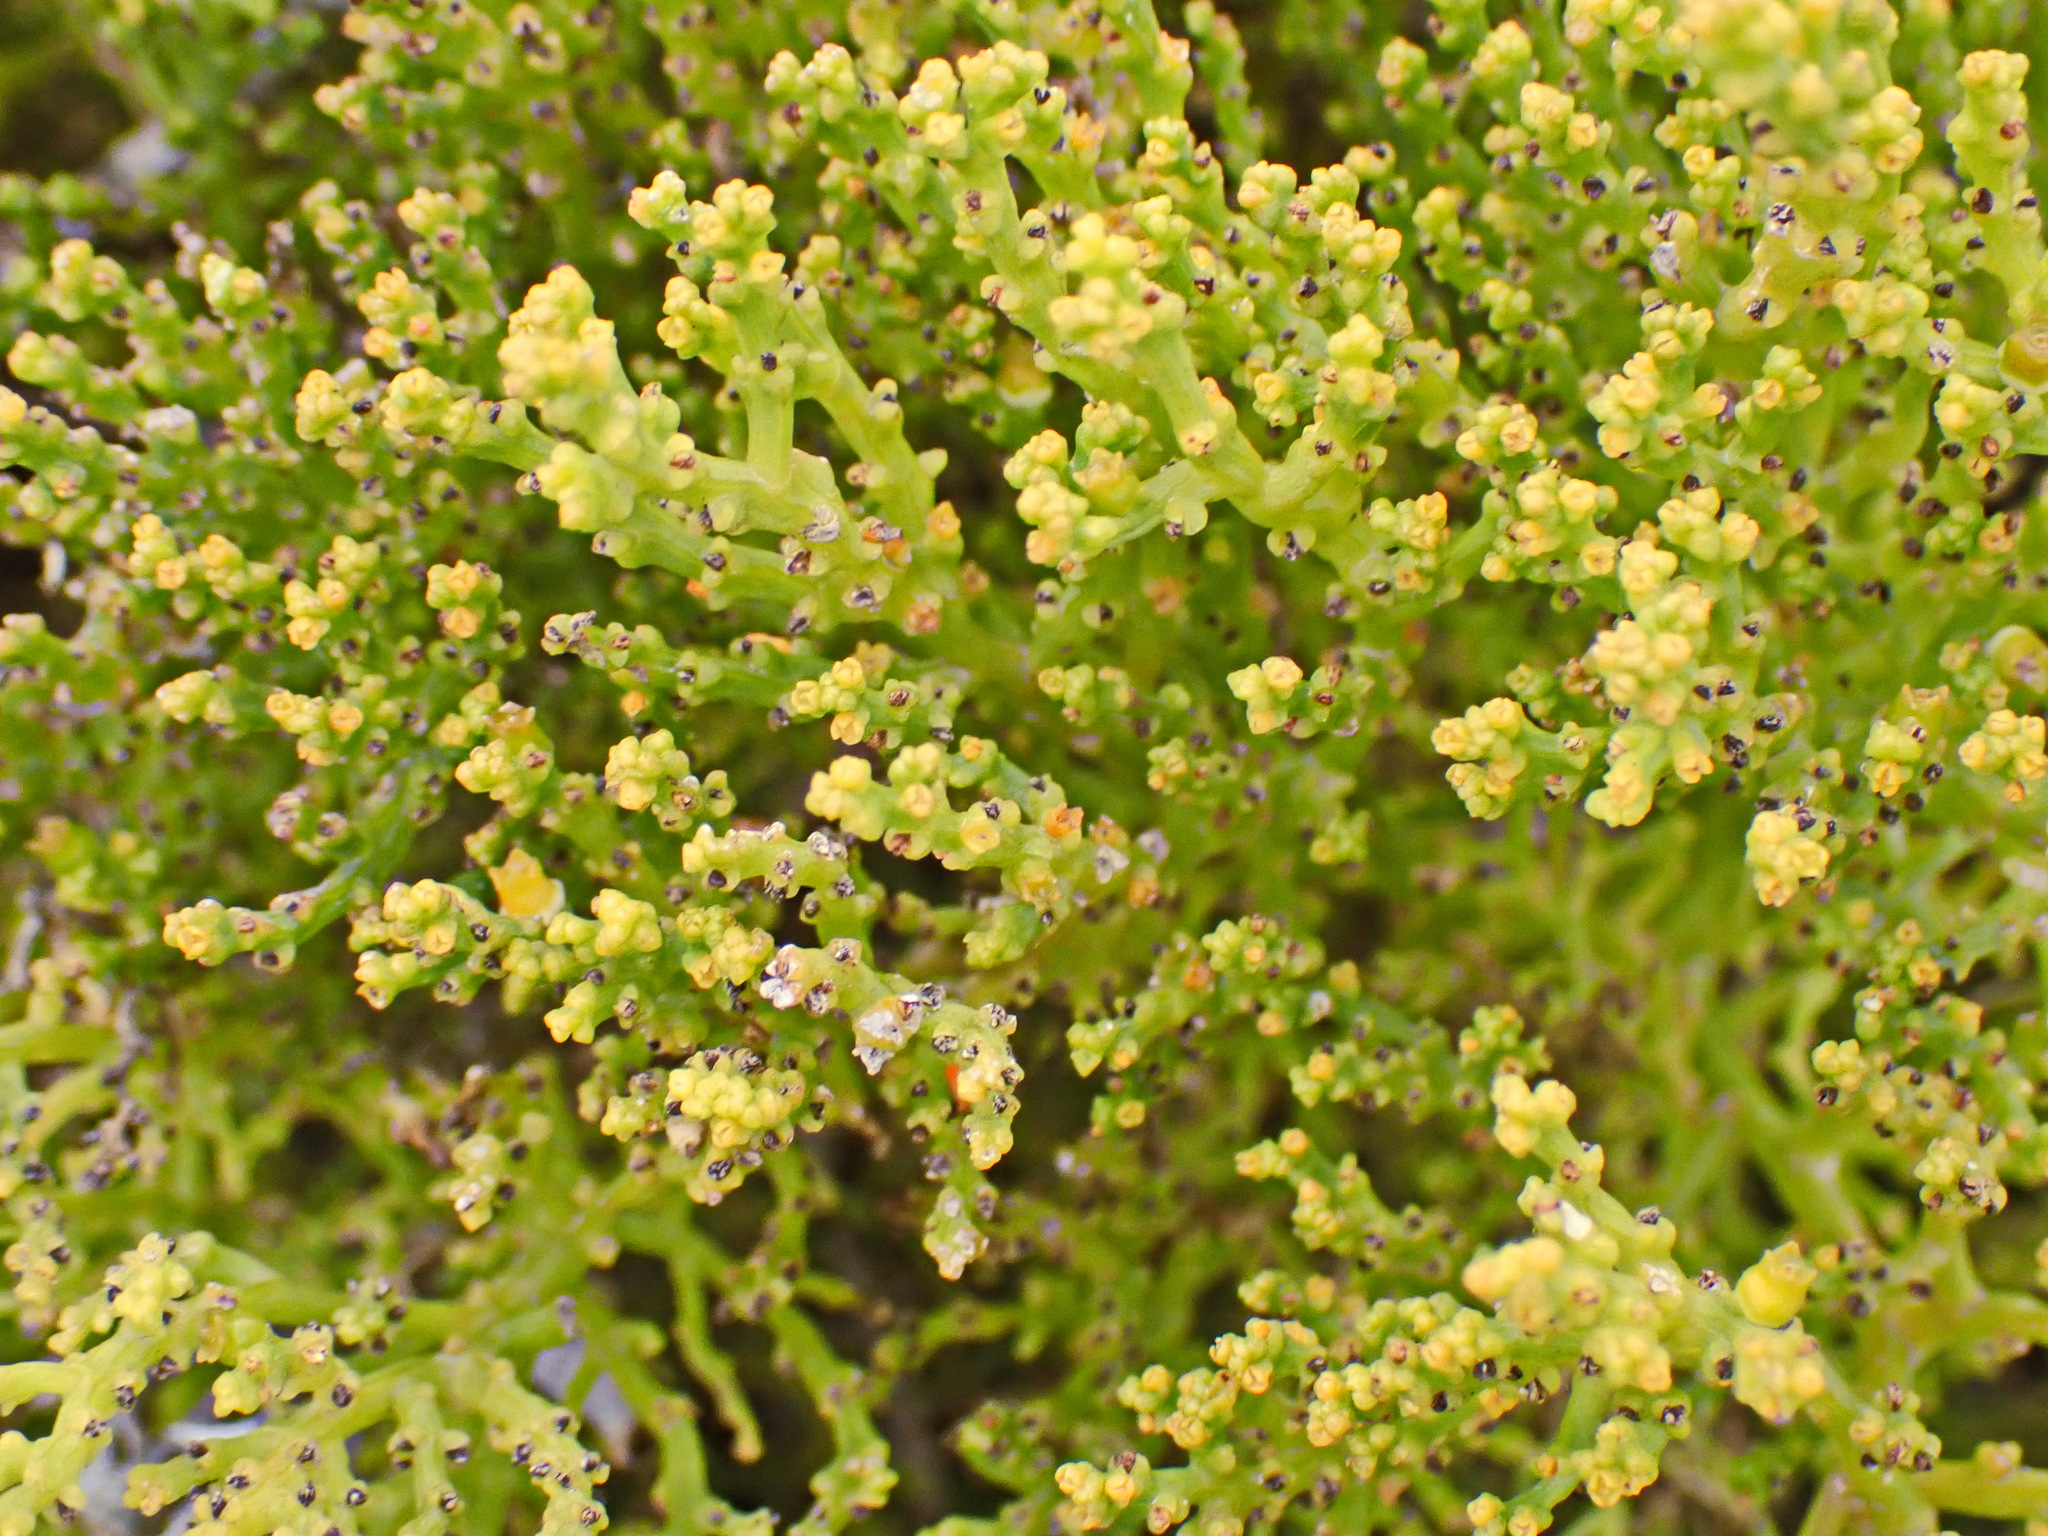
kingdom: Plantae
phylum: Tracheophyta
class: Magnoliopsida
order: Santalales
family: Thesiaceae
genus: Thesium
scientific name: Thesium fragile
